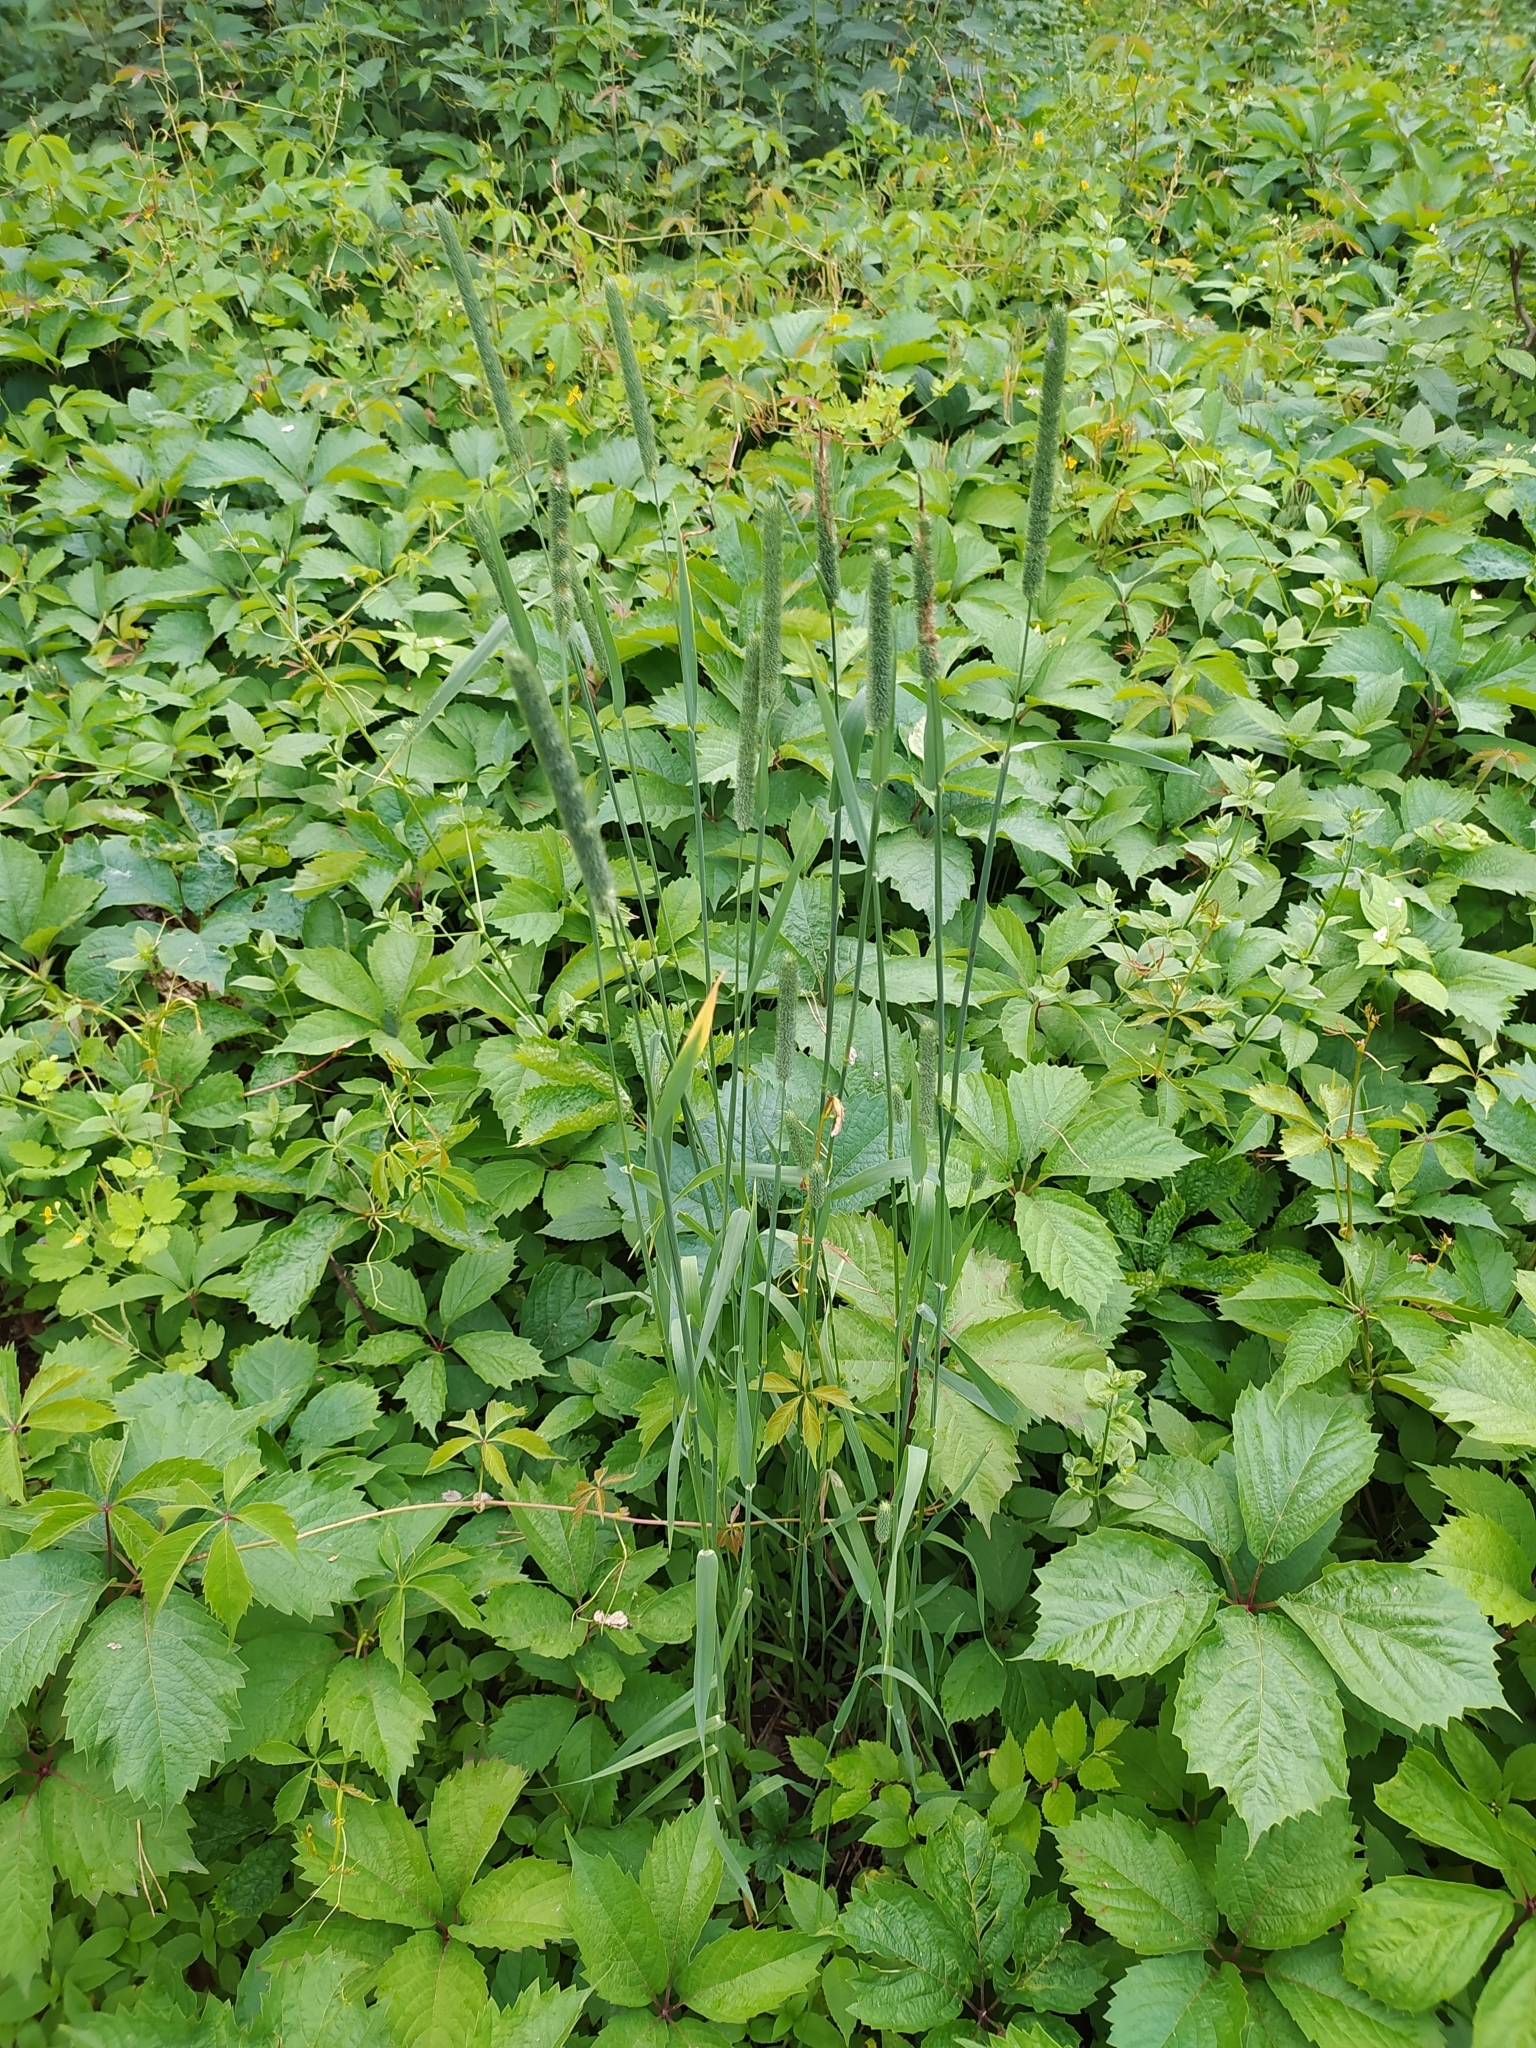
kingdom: Plantae
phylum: Tracheophyta
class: Liliopsida
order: Poales
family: Poaceae
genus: Phleum
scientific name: Phleum pratense
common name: Timothy grass
